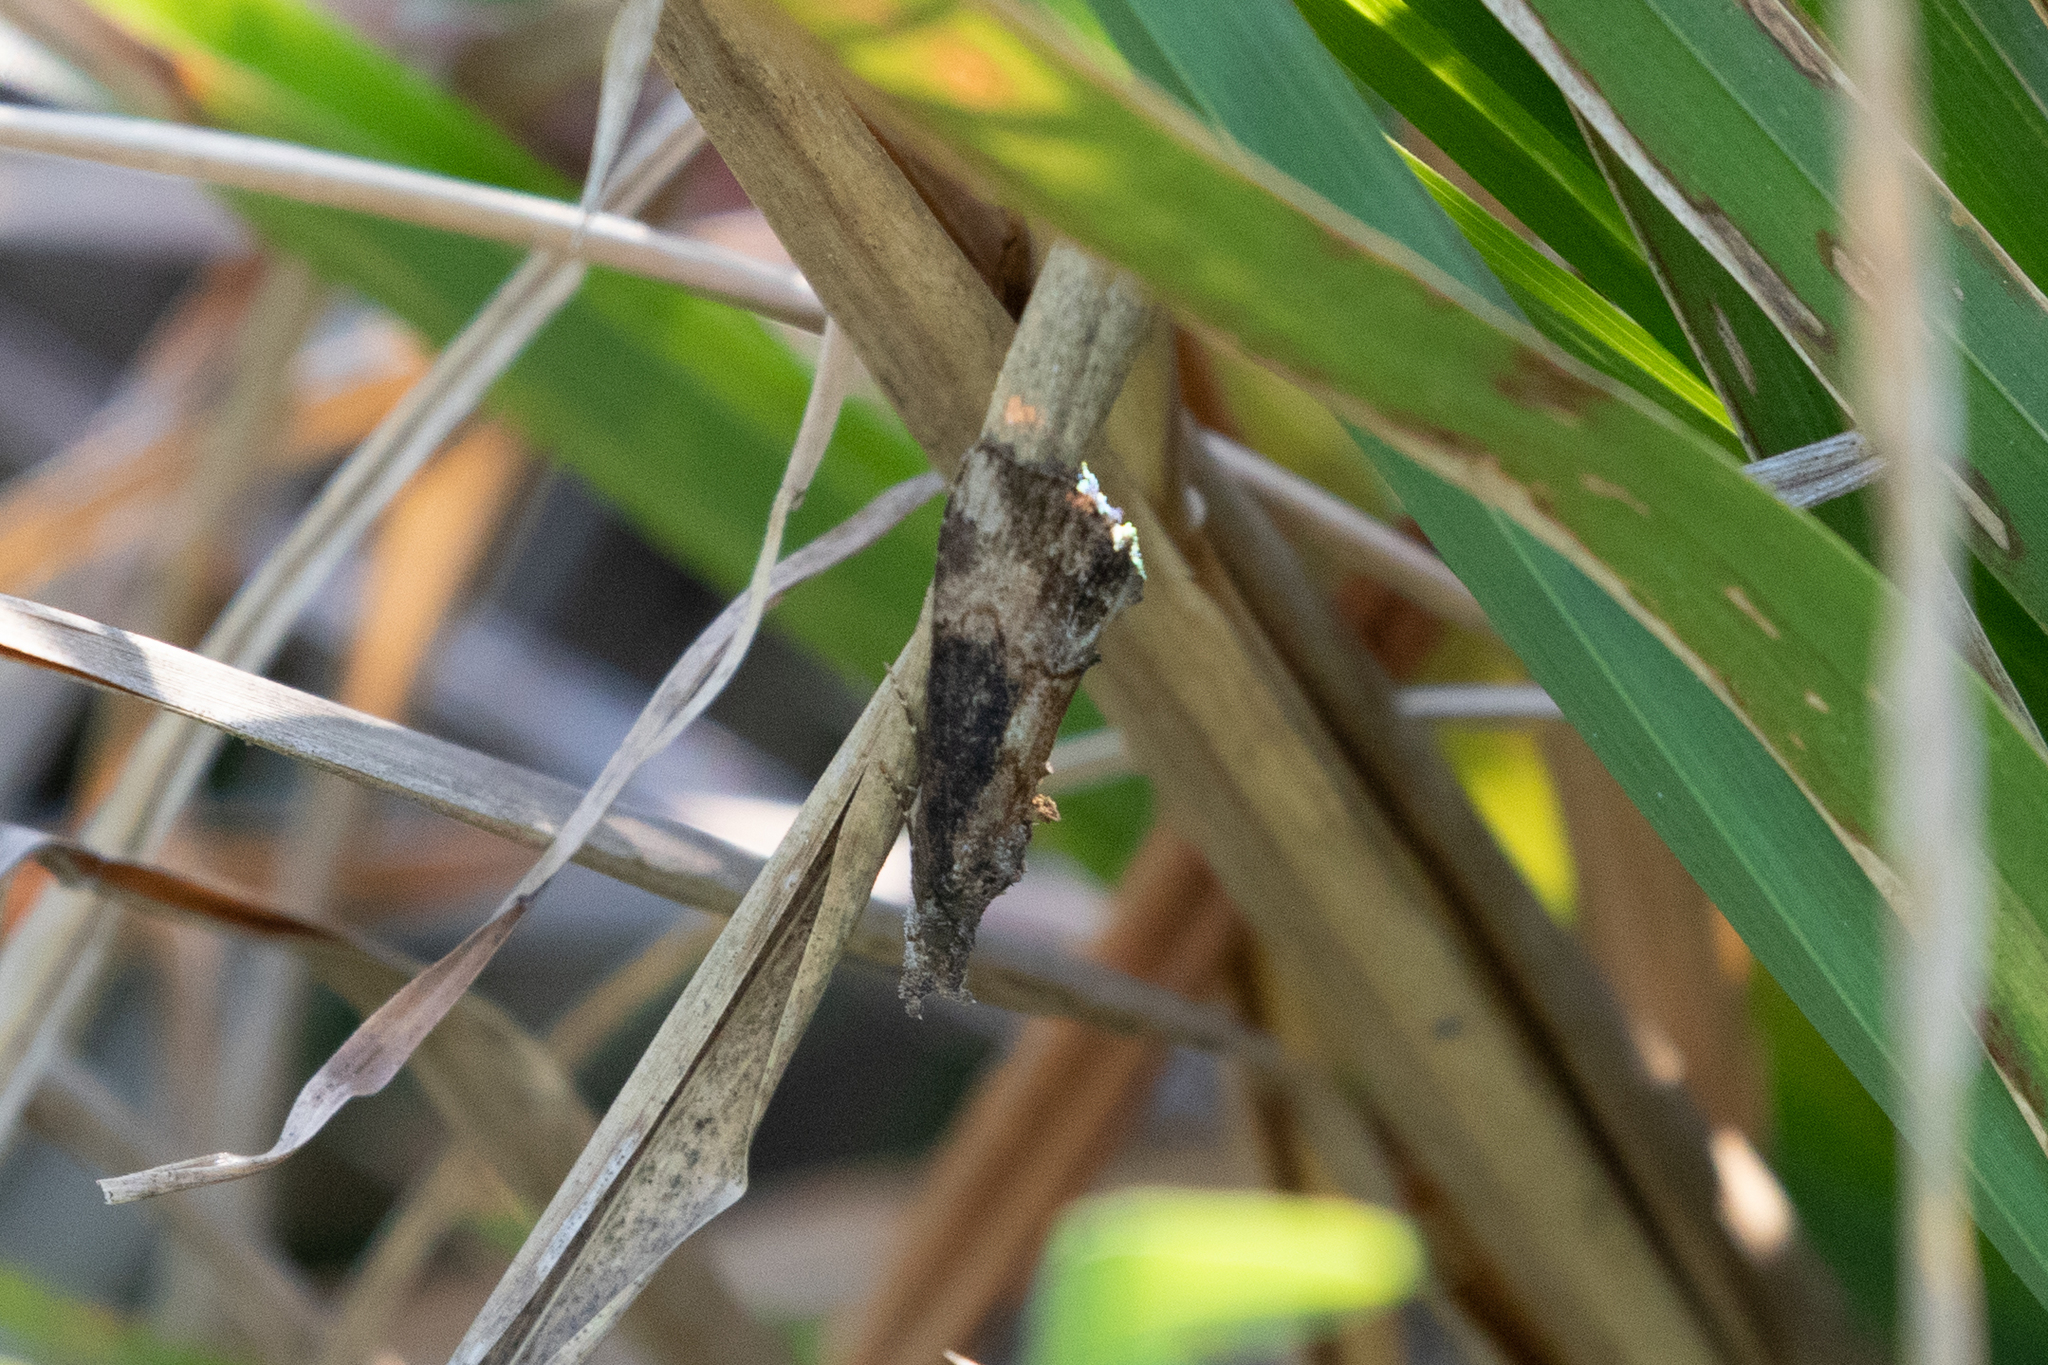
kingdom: Animalia
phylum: Arthropoda
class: Insecta
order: Lepidoptera
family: Erebidae
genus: Hypena
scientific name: Hypena scabra
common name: Green cloverworm
